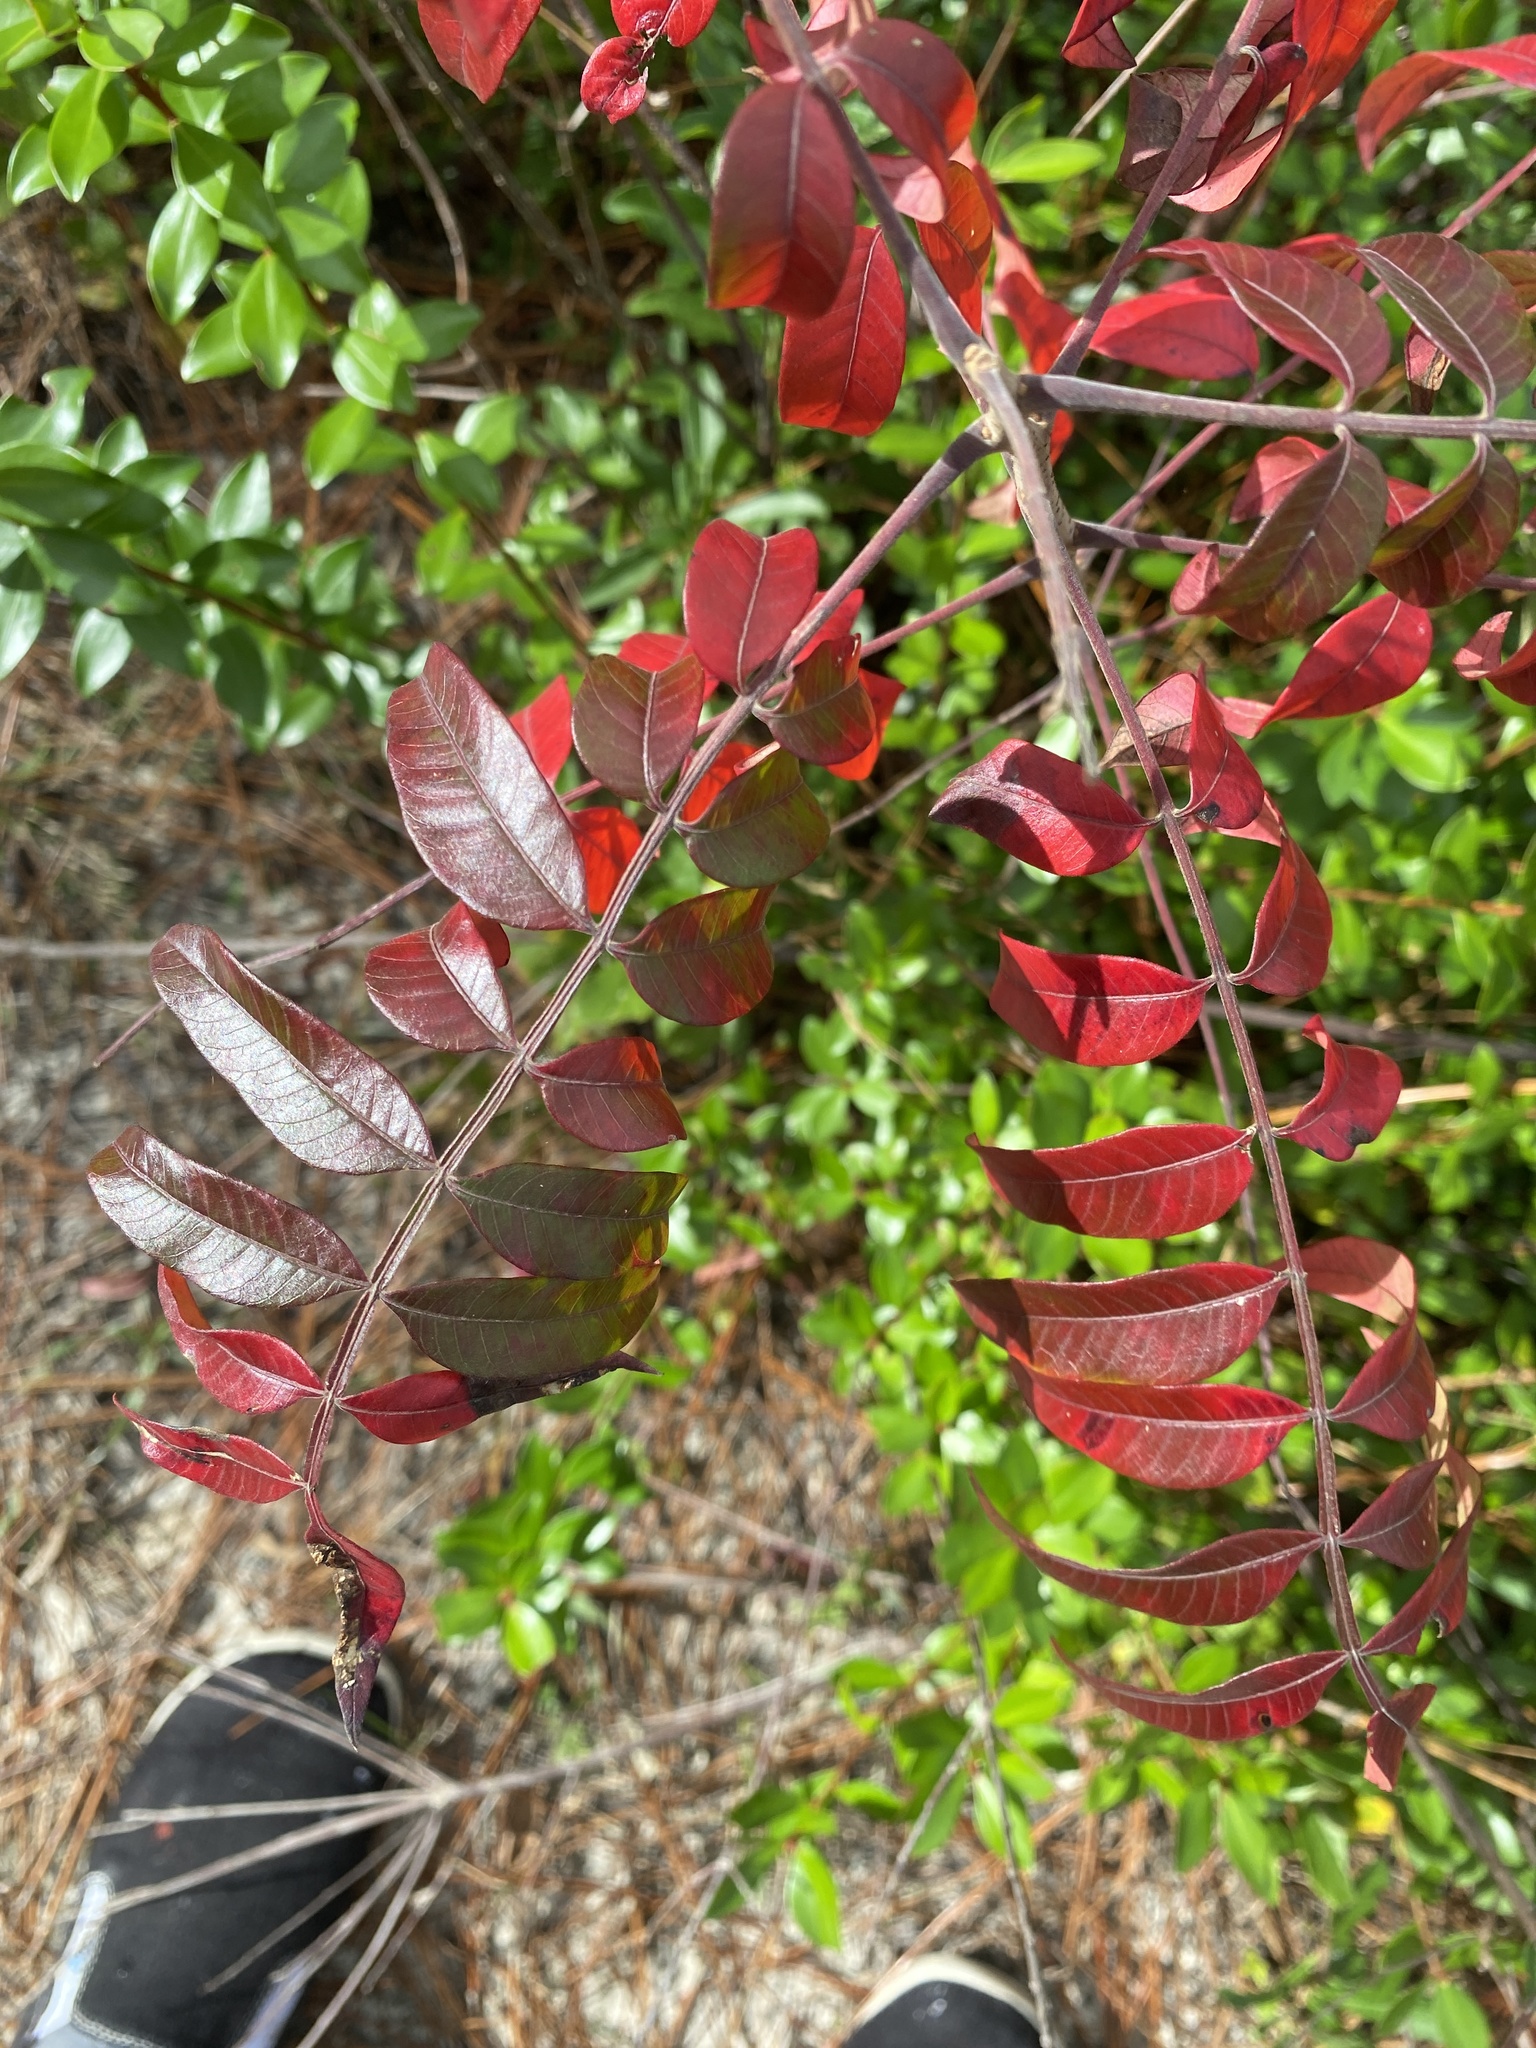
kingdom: Plantae
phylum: Tracheophyta
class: Magnoliopsida
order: Sapindales
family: Anacardiaceae
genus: Rhus
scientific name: Rhus copallina
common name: Shining sumac
